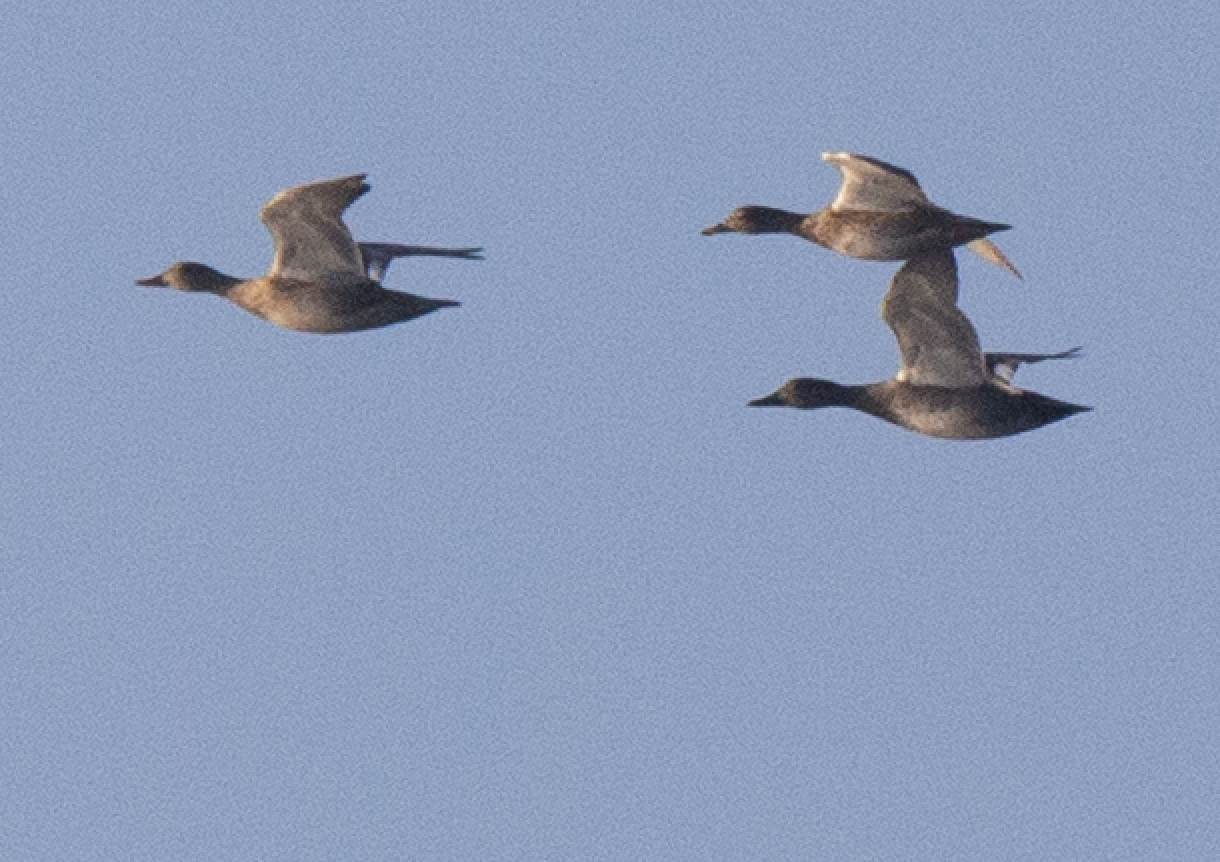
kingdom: Animalia
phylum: Chordata
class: Aves
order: Anseriformes
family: Anatidae
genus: Mareca
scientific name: Mareca strepera
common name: Gadwall
